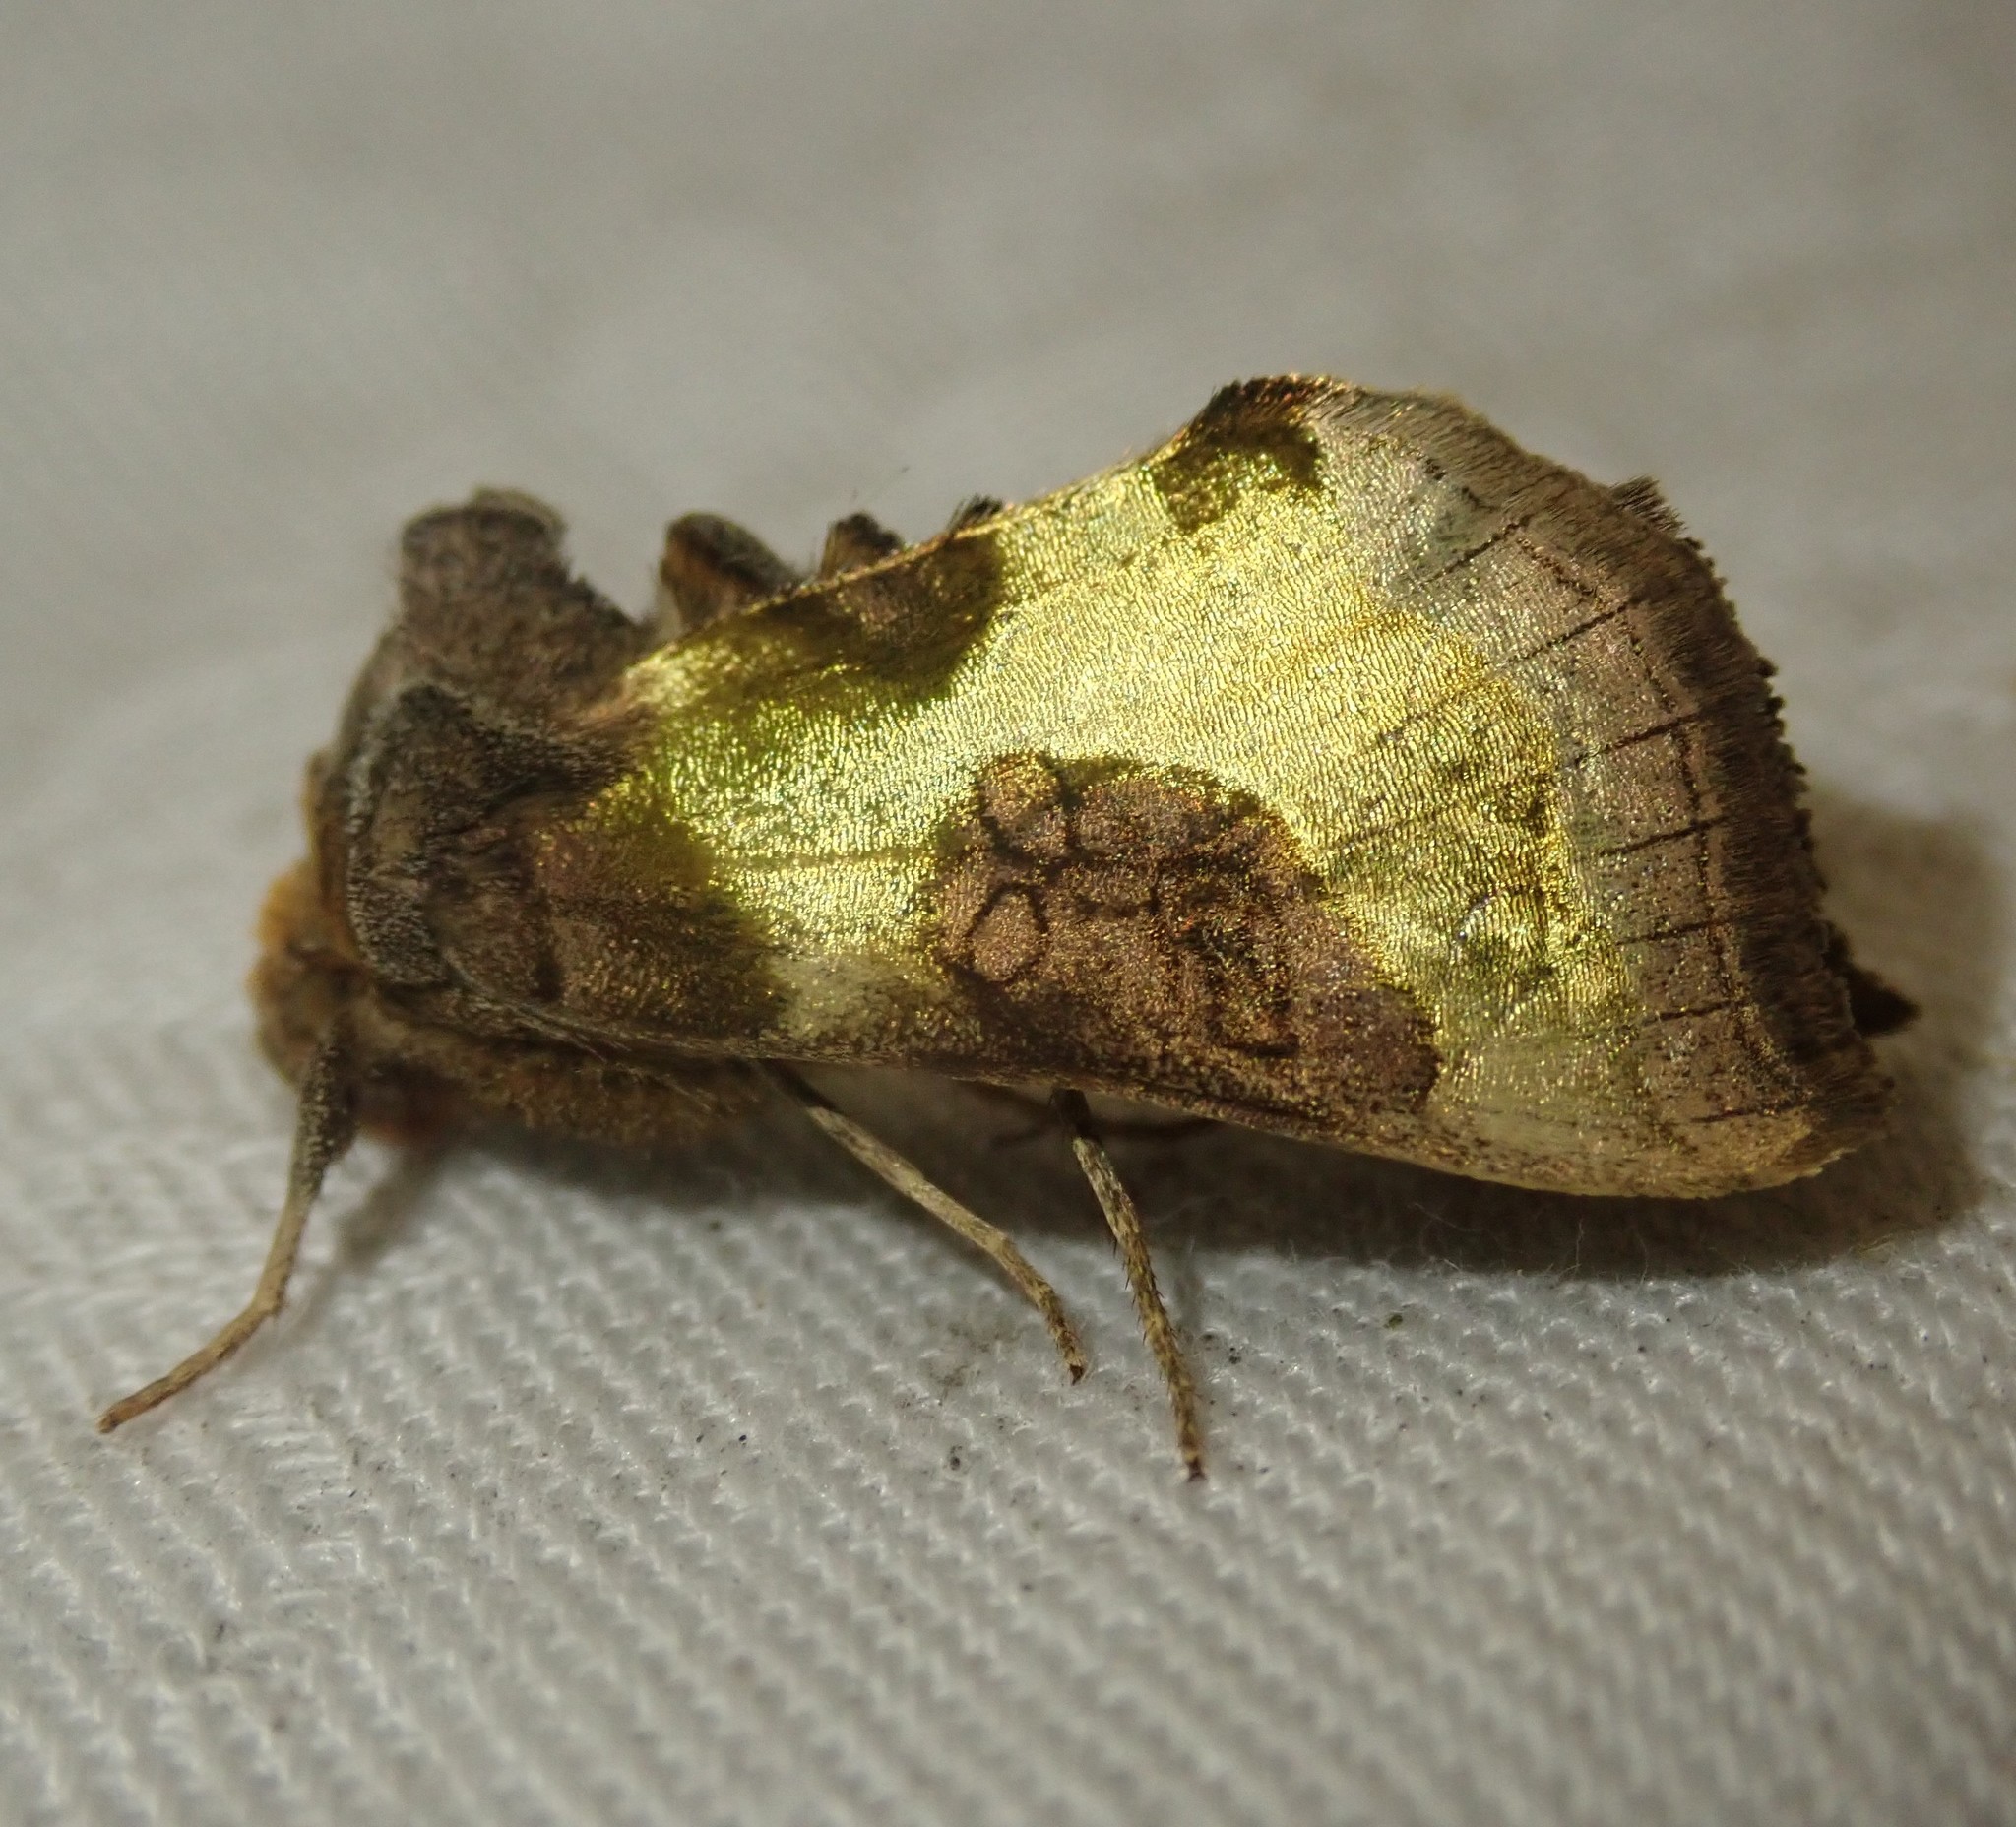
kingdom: Animalia
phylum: Arthropoda
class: Insecta
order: Lepidoptera
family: Noctuidae
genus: Diachrysia
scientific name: Diachrysia chrysitis
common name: Burnished brass
